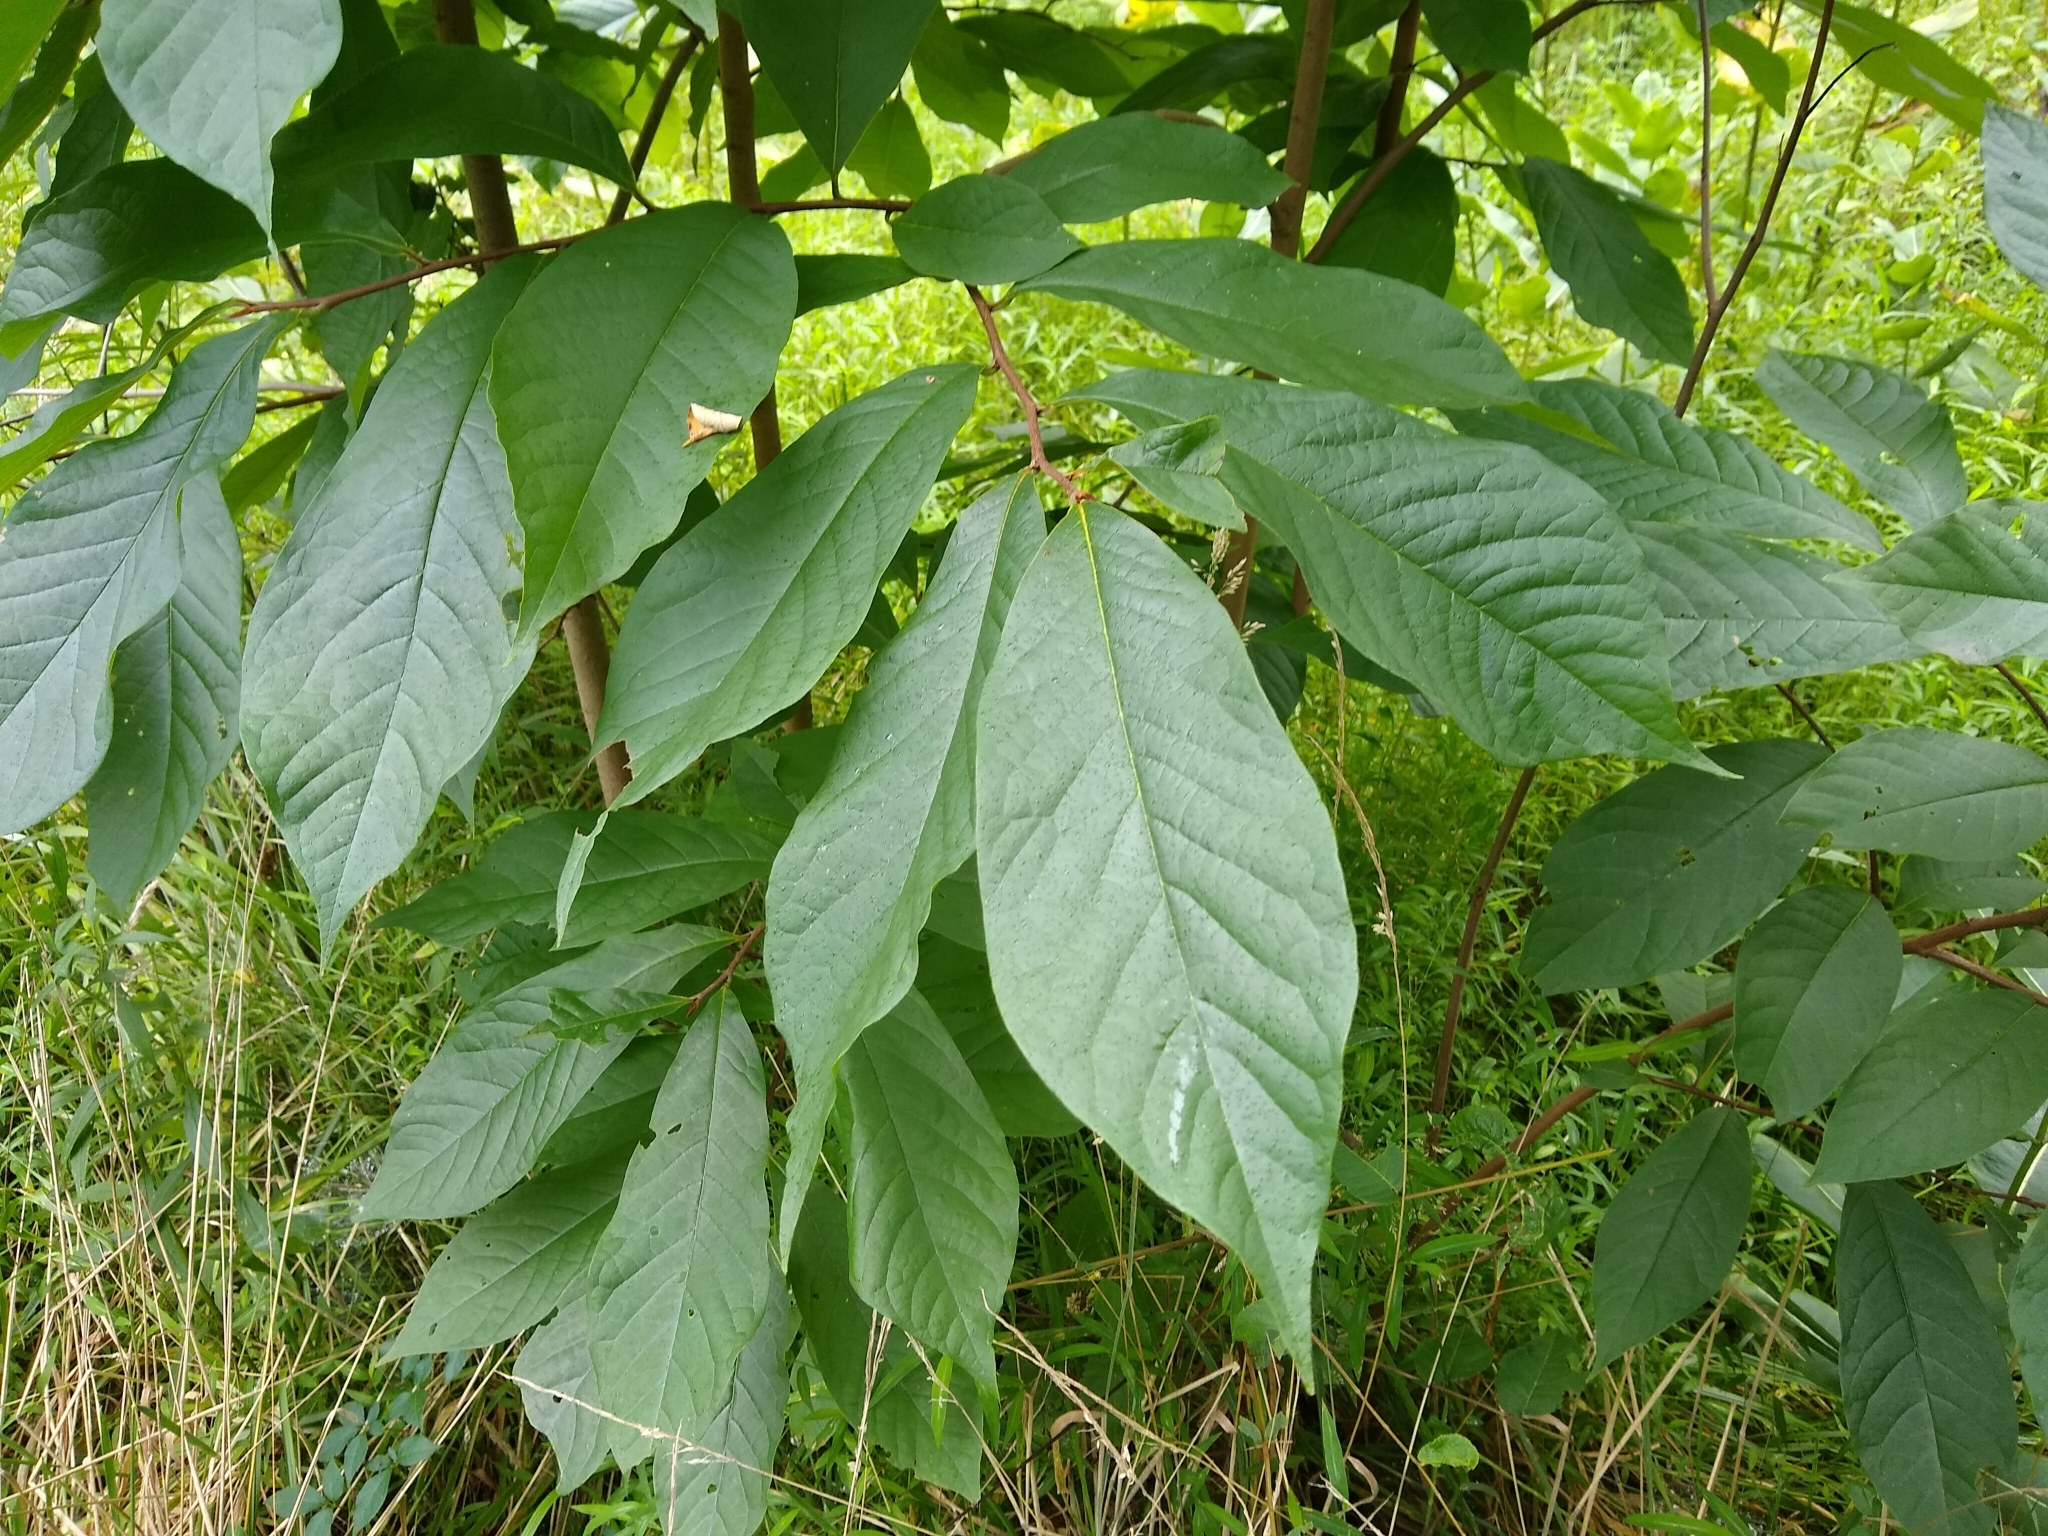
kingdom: Plantae
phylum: Tracheophyta
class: Magnoliopsida
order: Magnoliales
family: Annonaceae
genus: Asimina
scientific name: Asimina triloba
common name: Dog-banana
